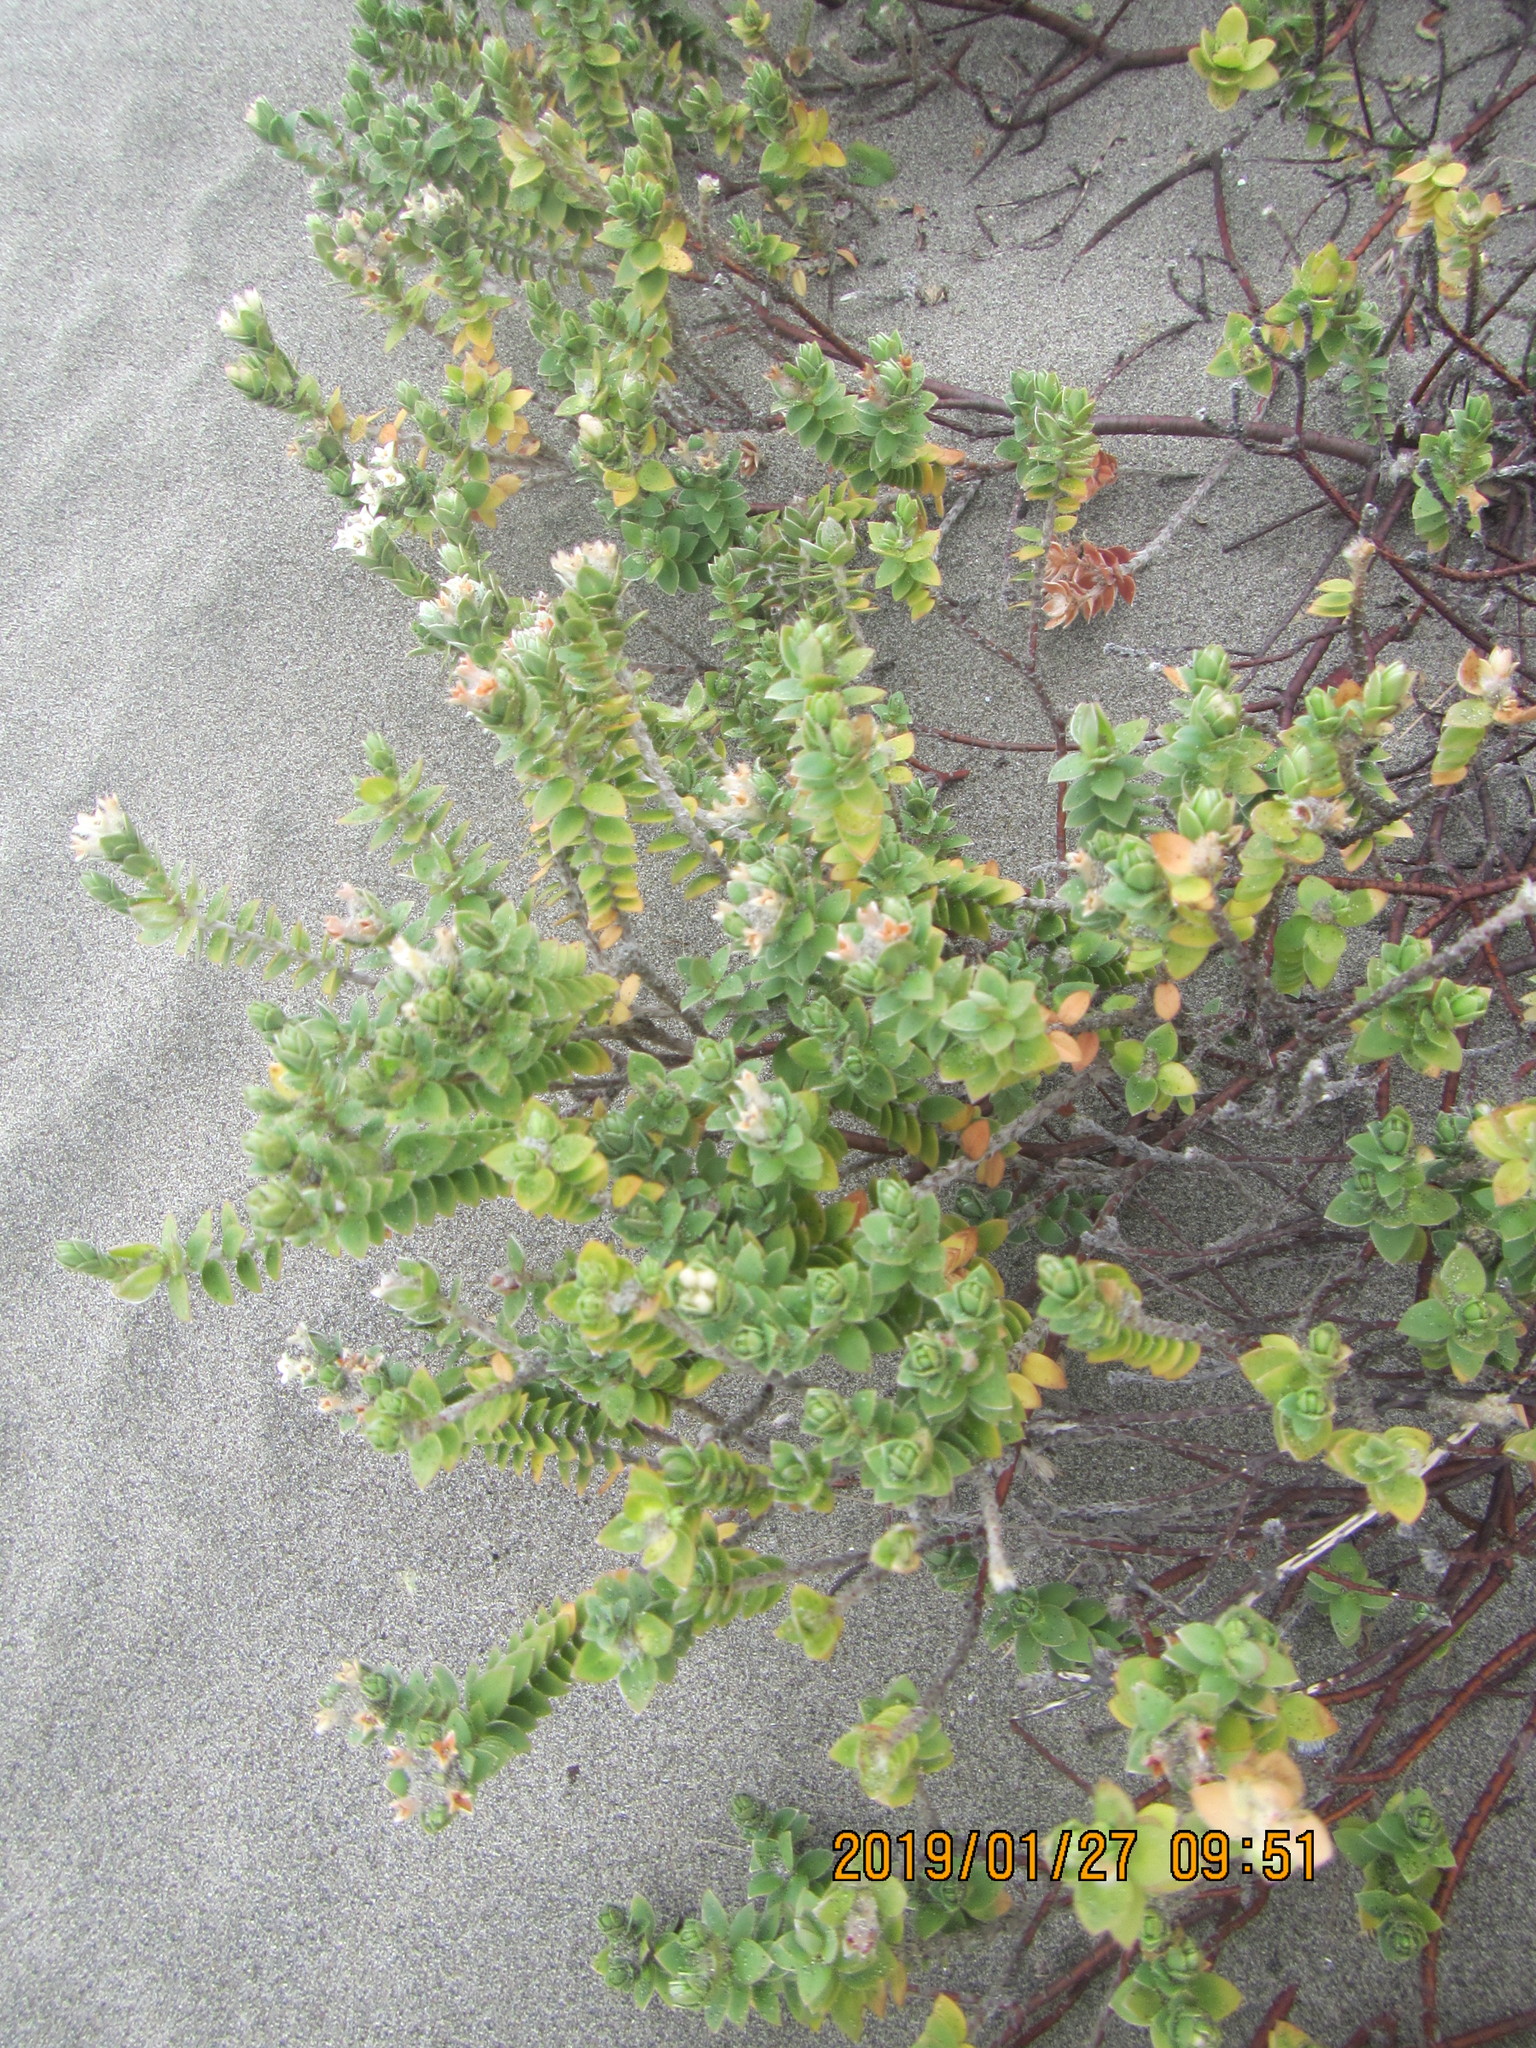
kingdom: Plantae
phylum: Tracheophyta
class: Magnoliopsida
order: Malvales
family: Thymelaeaceae
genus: Pimelea
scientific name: Pimelea villosa
